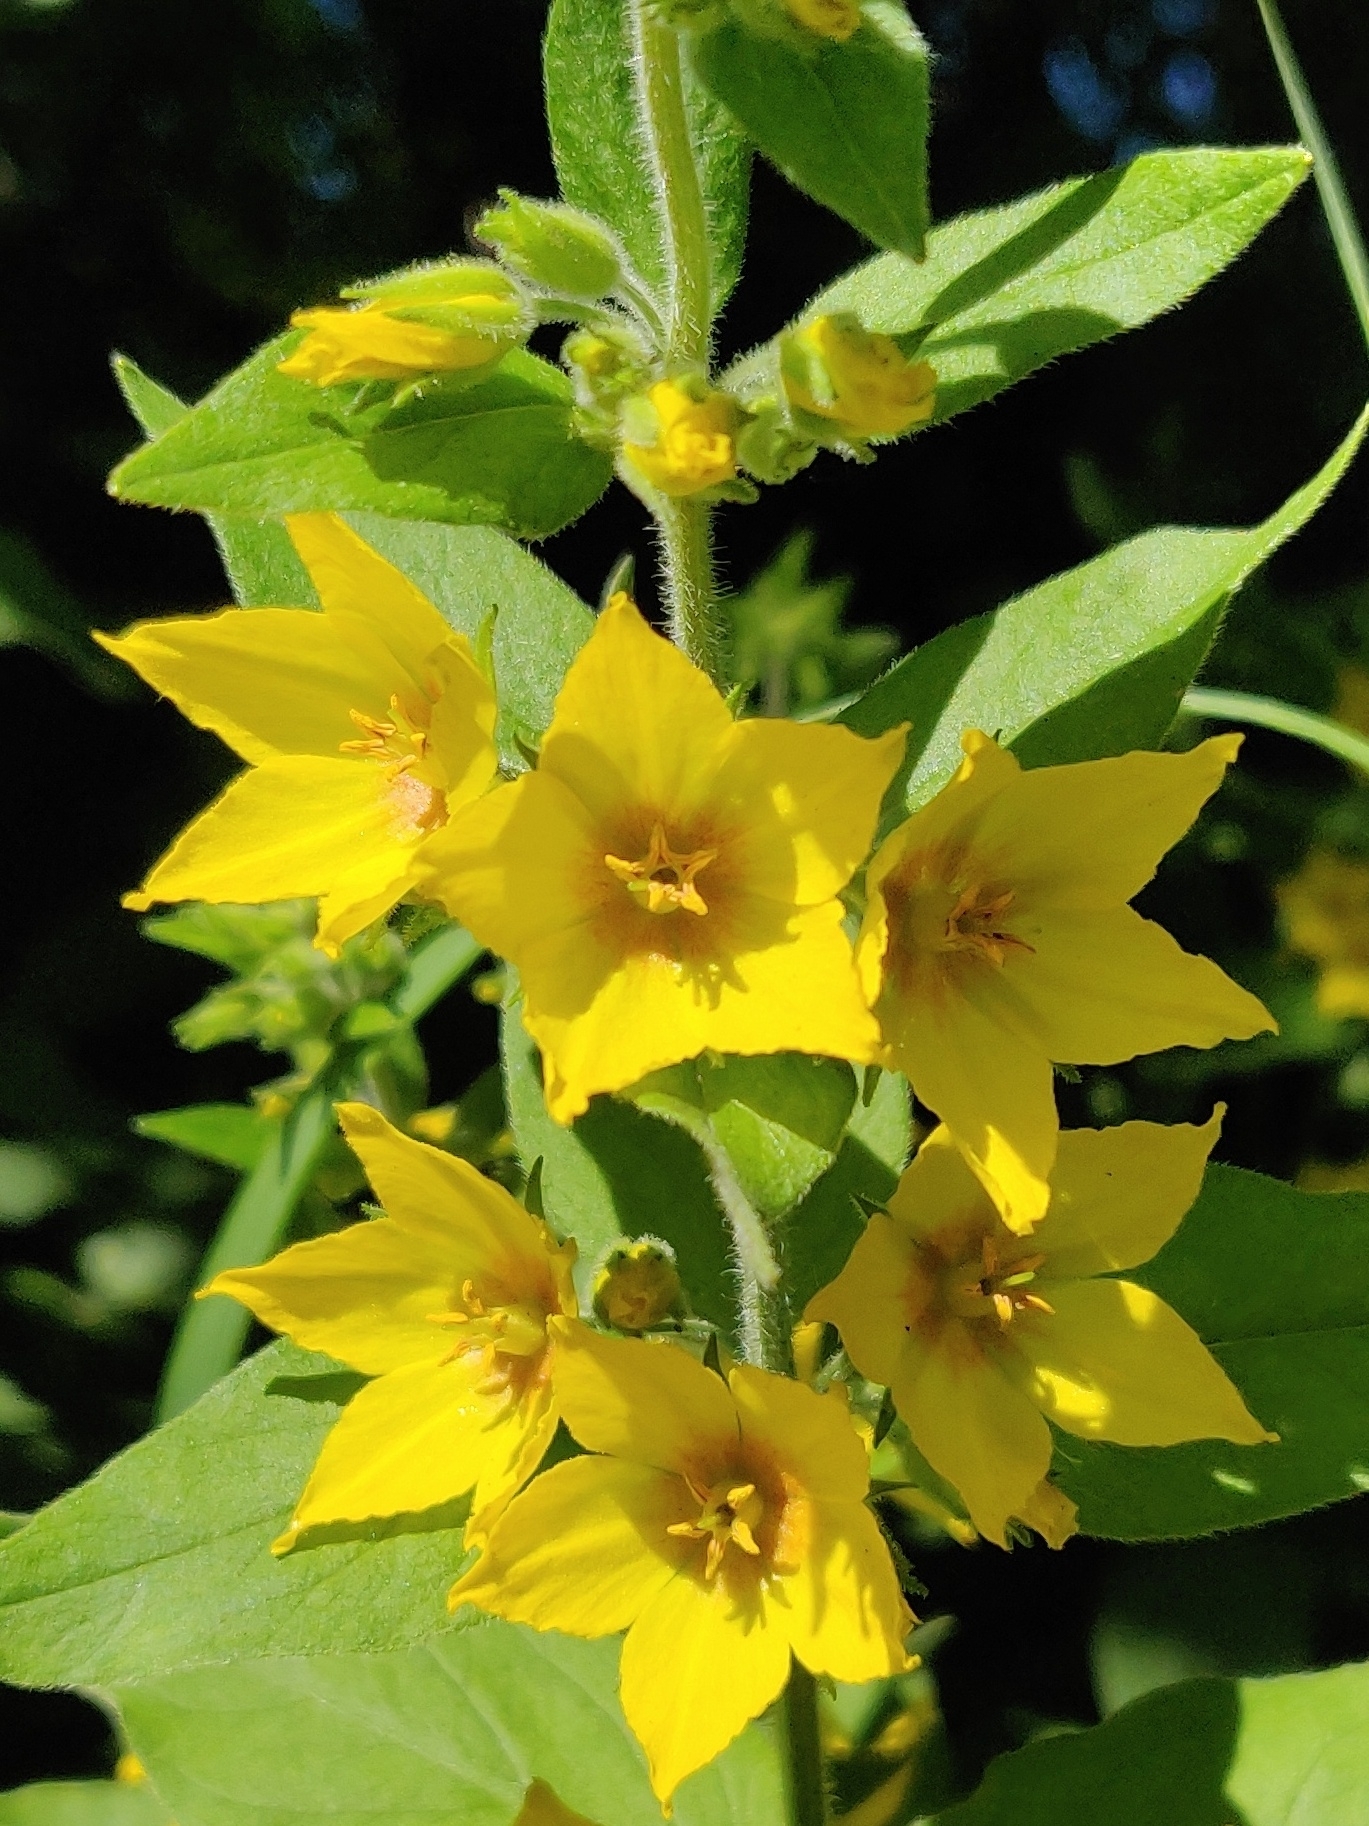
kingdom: Plantae
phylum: Tracheophyta
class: Magnoliopsida
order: Ericales
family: Primulaceae
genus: Lysimachia
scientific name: Lysimachia punctata
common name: Dotted loosestrife
